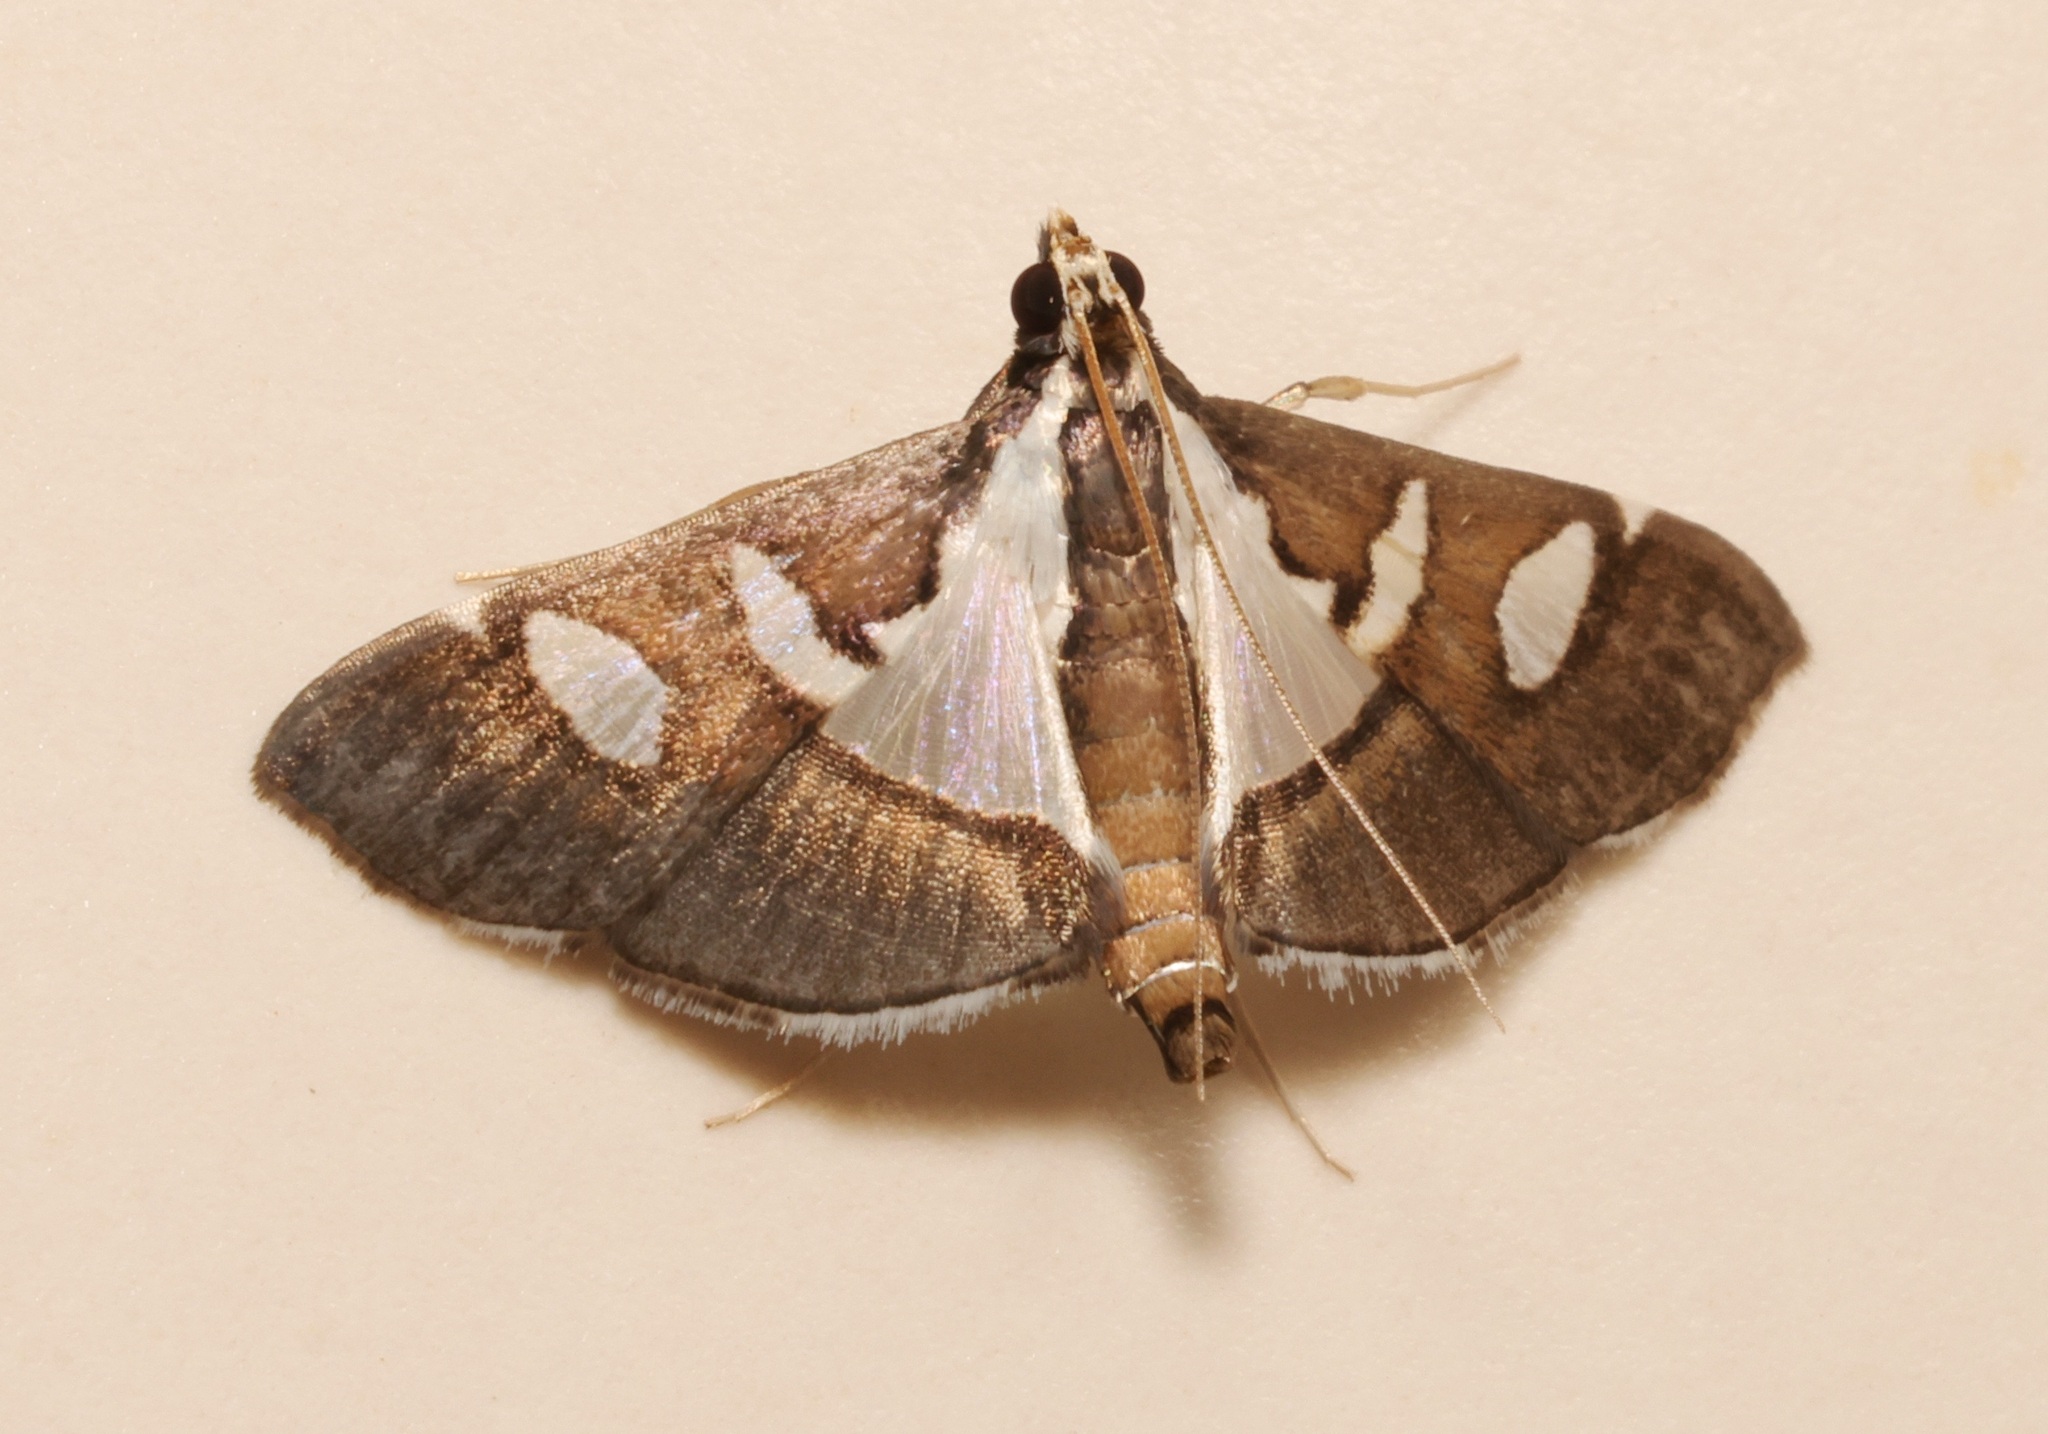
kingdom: Animalia
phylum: Arthropoda
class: Insecta
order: Lepidoptera
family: Crambidae
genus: Glyphodes
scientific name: Glyphodes bicolor
